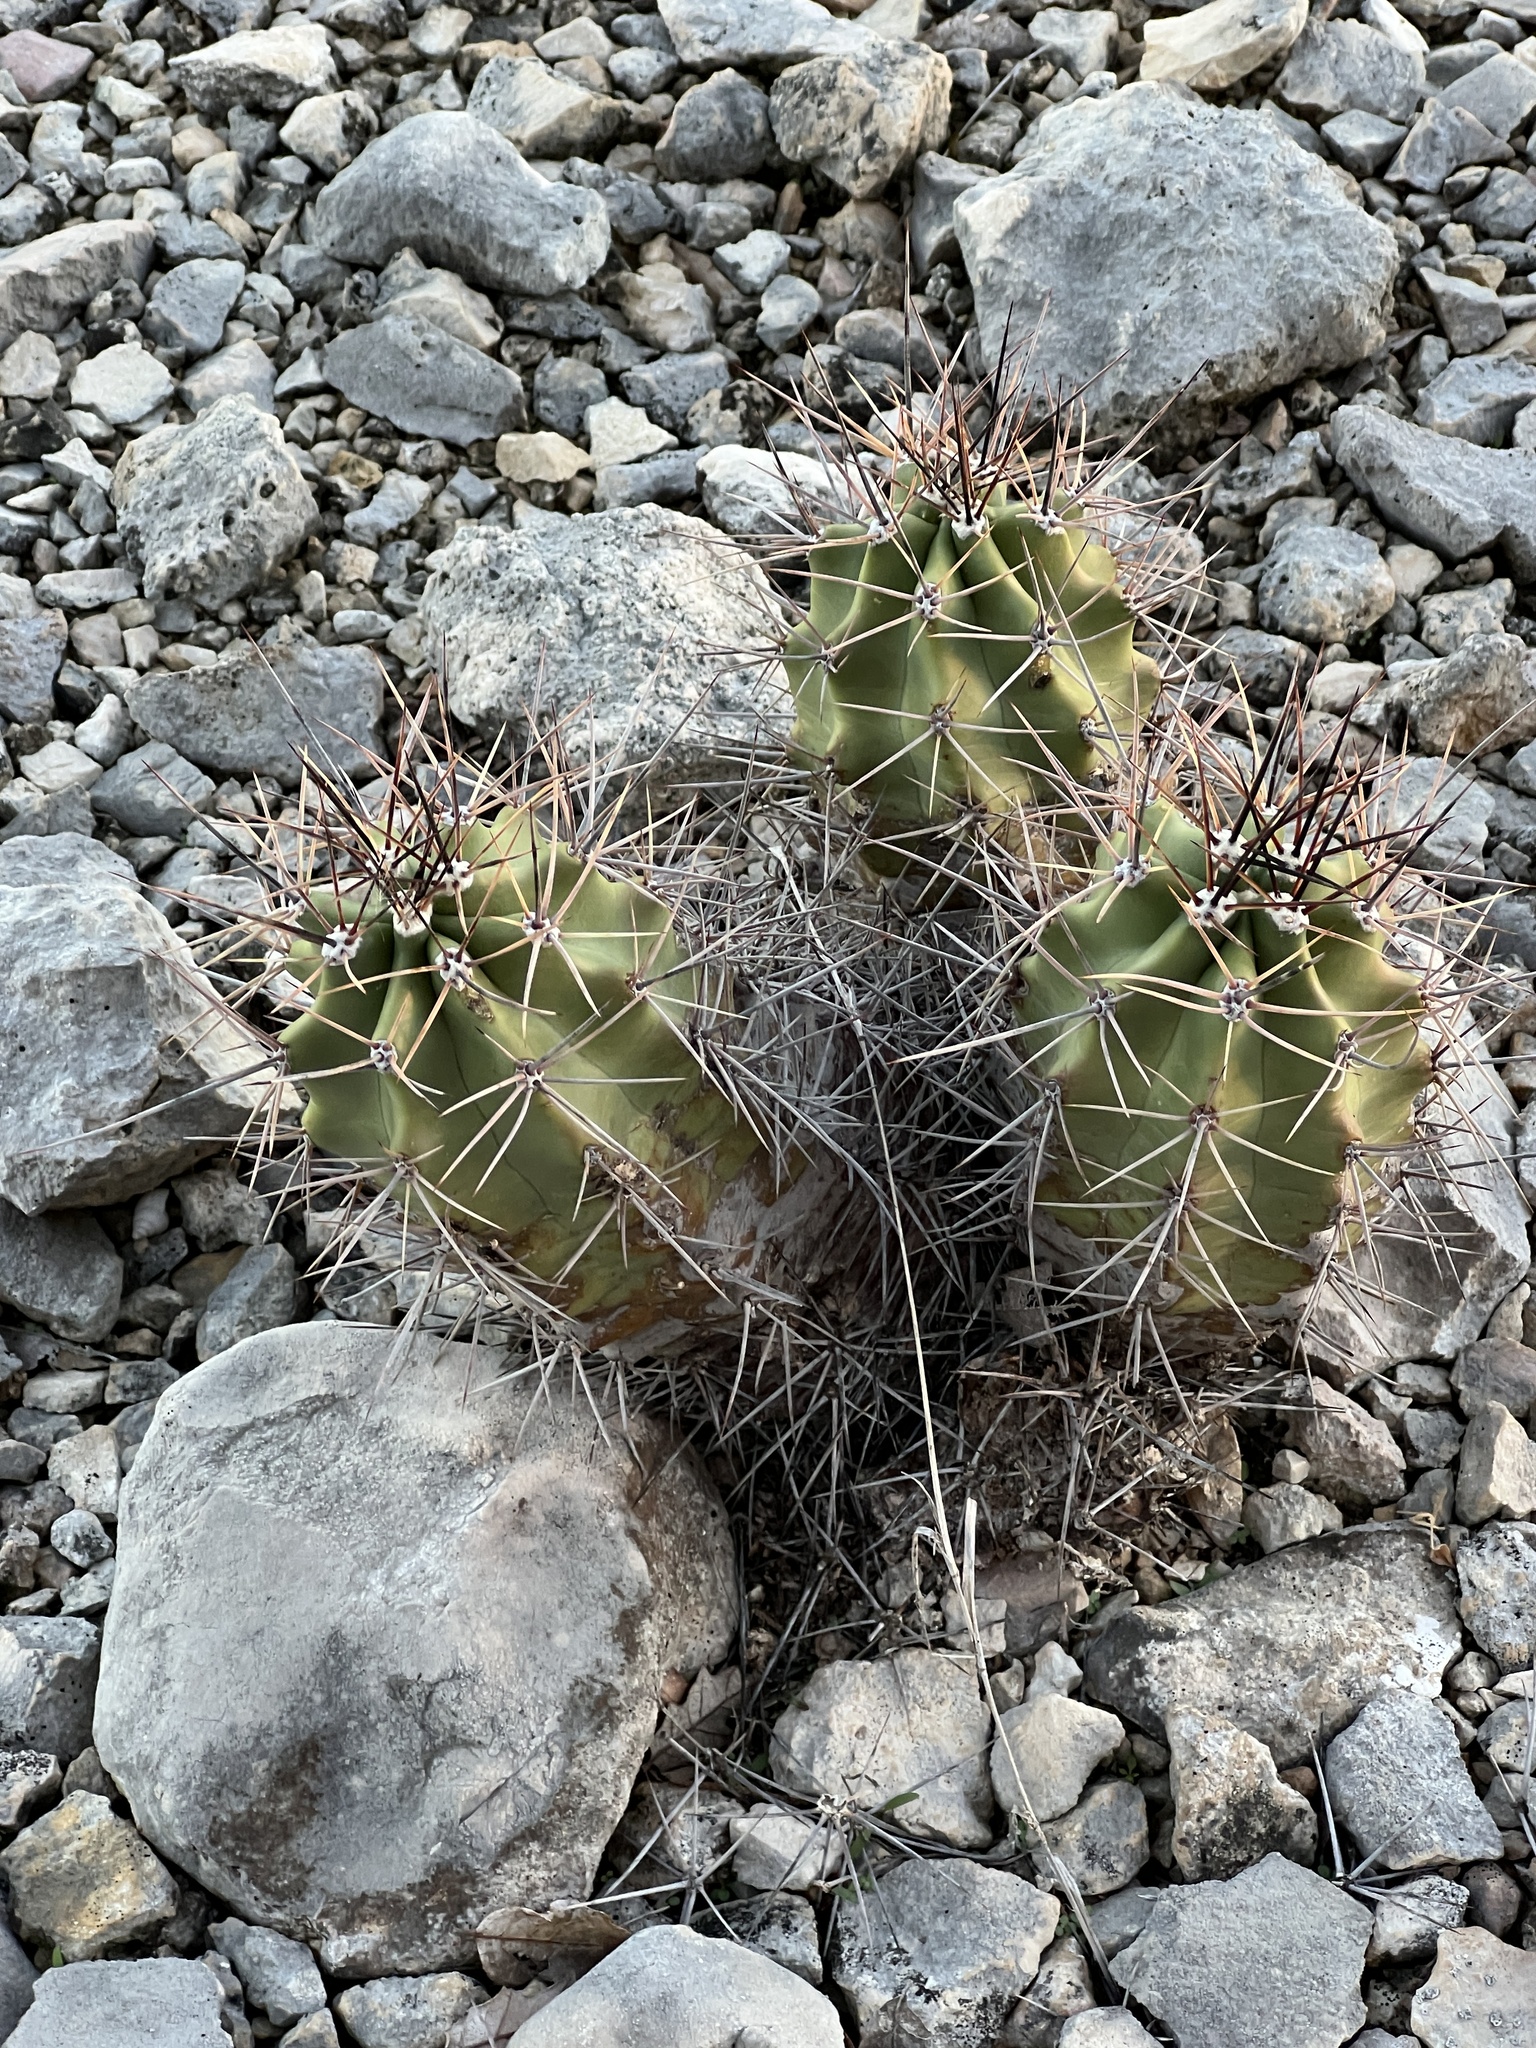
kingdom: Plantae
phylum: Tracheophyta
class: Magnoliopsida
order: Caryophyllales
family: Cactaceae
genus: Echinocereus
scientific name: Echinocereus coccineus
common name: Scarlet hedgehog cactus
